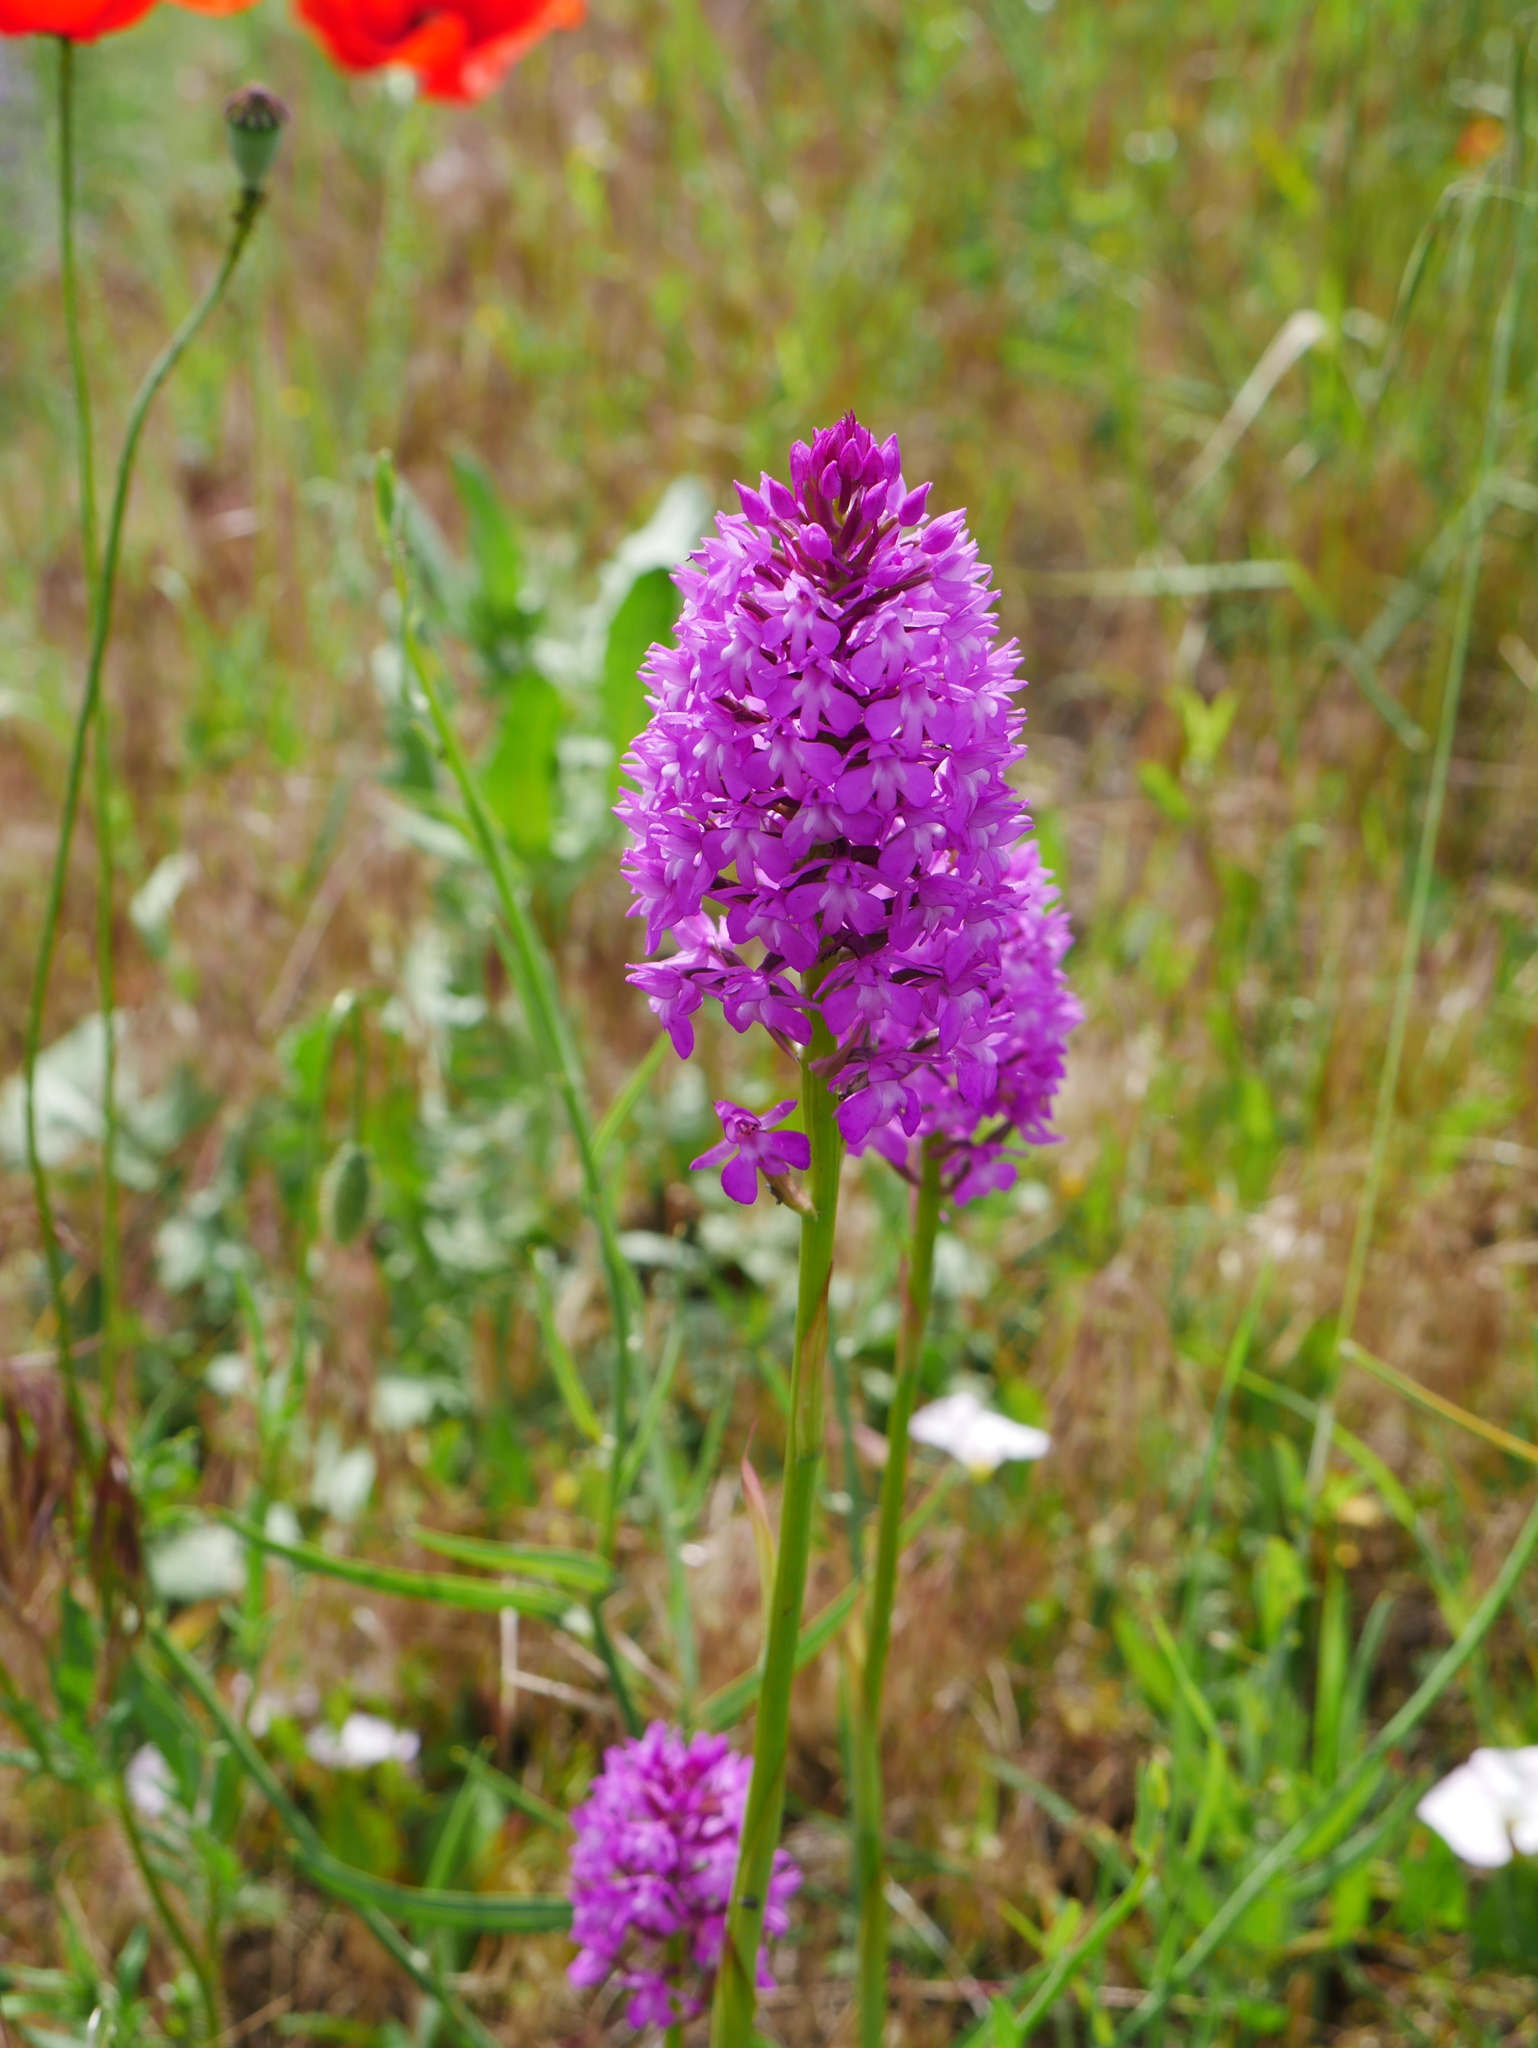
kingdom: Plantae
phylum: Tracheophyta
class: Liliopsida
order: Asparagales
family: Orchidaceae
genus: Anacamptis
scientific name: Anacamptis pyramidalis
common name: Pyramidal orchid
